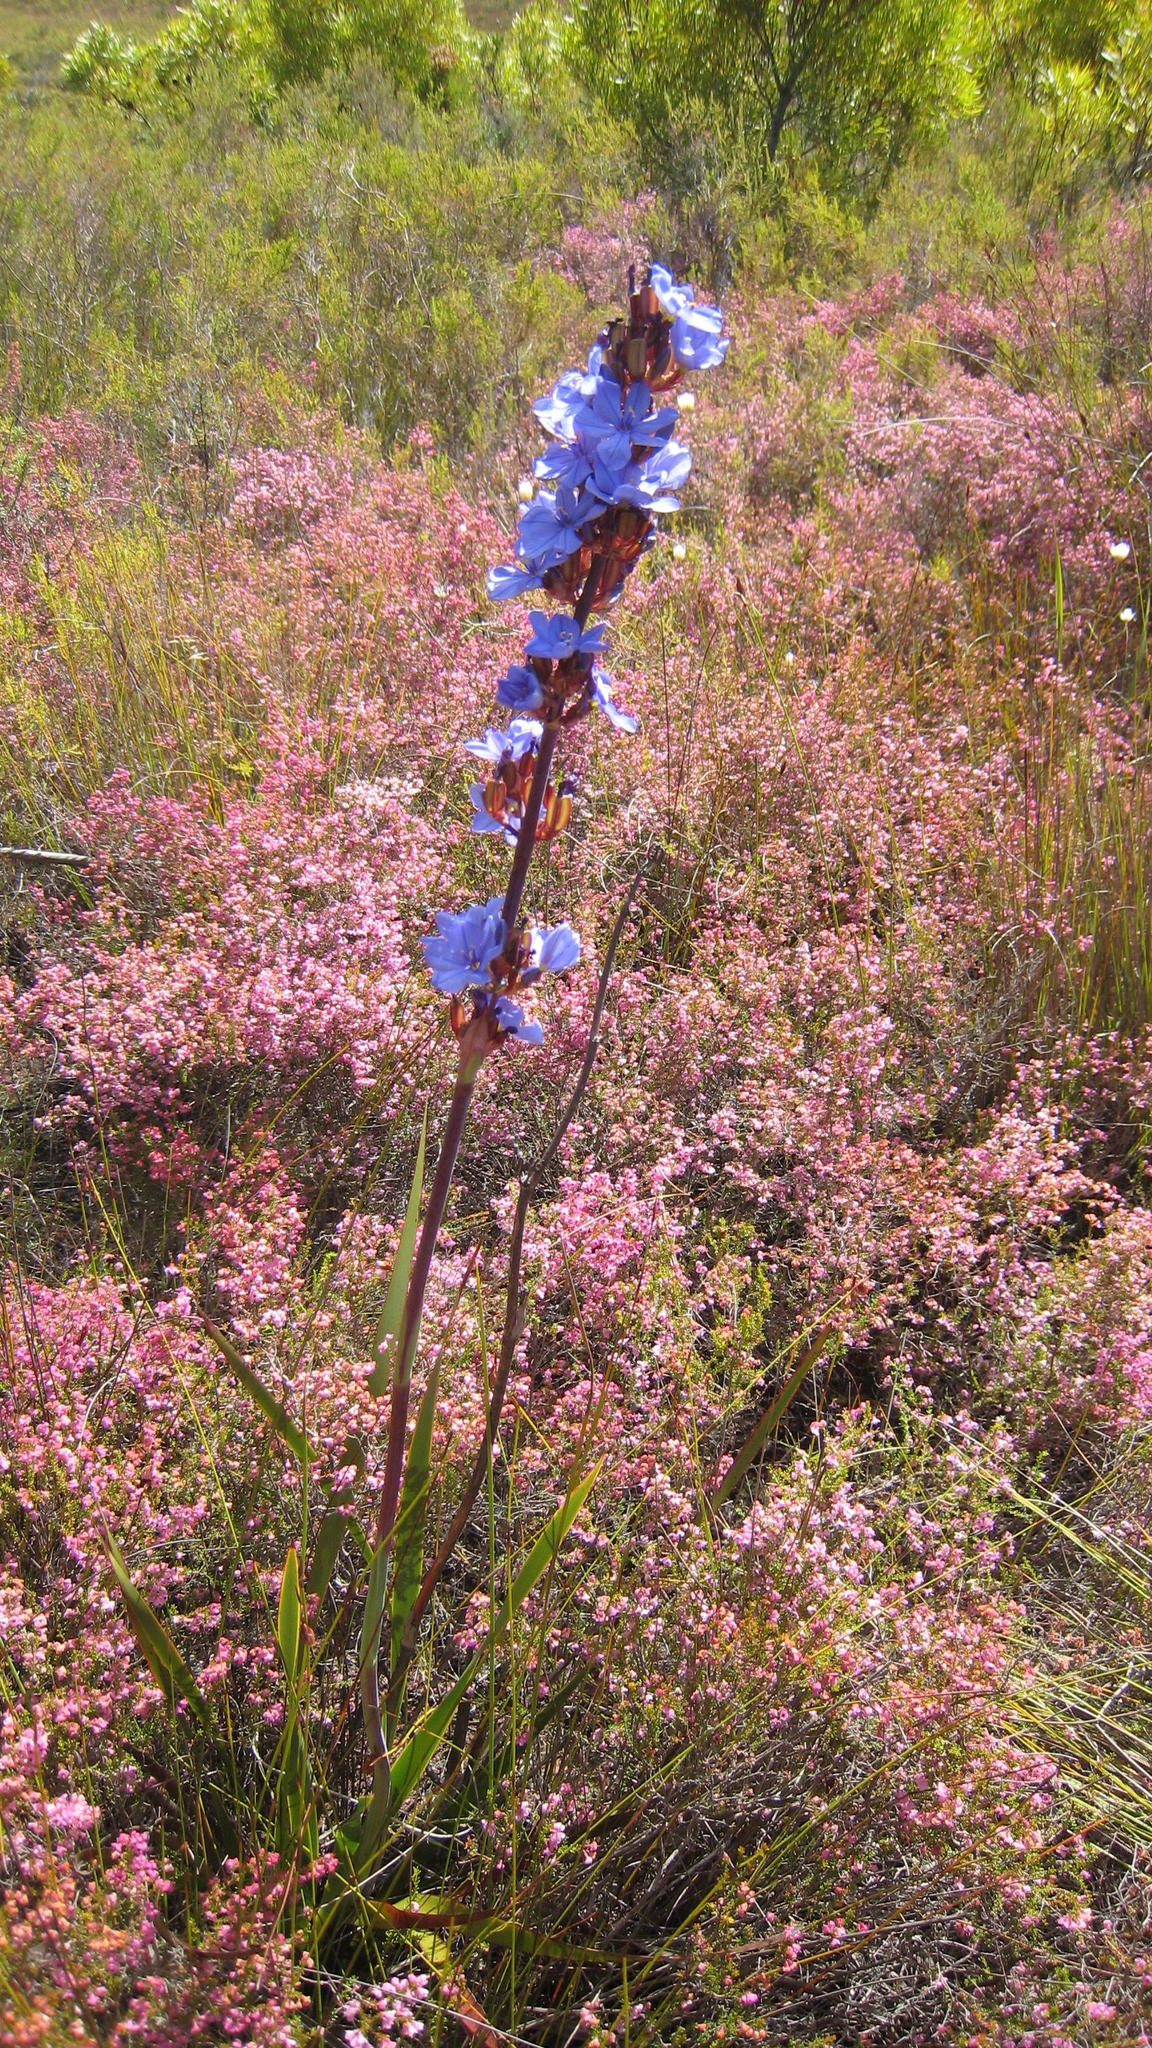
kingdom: Plantae
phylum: Tracheophyta
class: Liliopsida
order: Asparagales
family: Iridaceae
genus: Aristea
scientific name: Aristea bakeri
